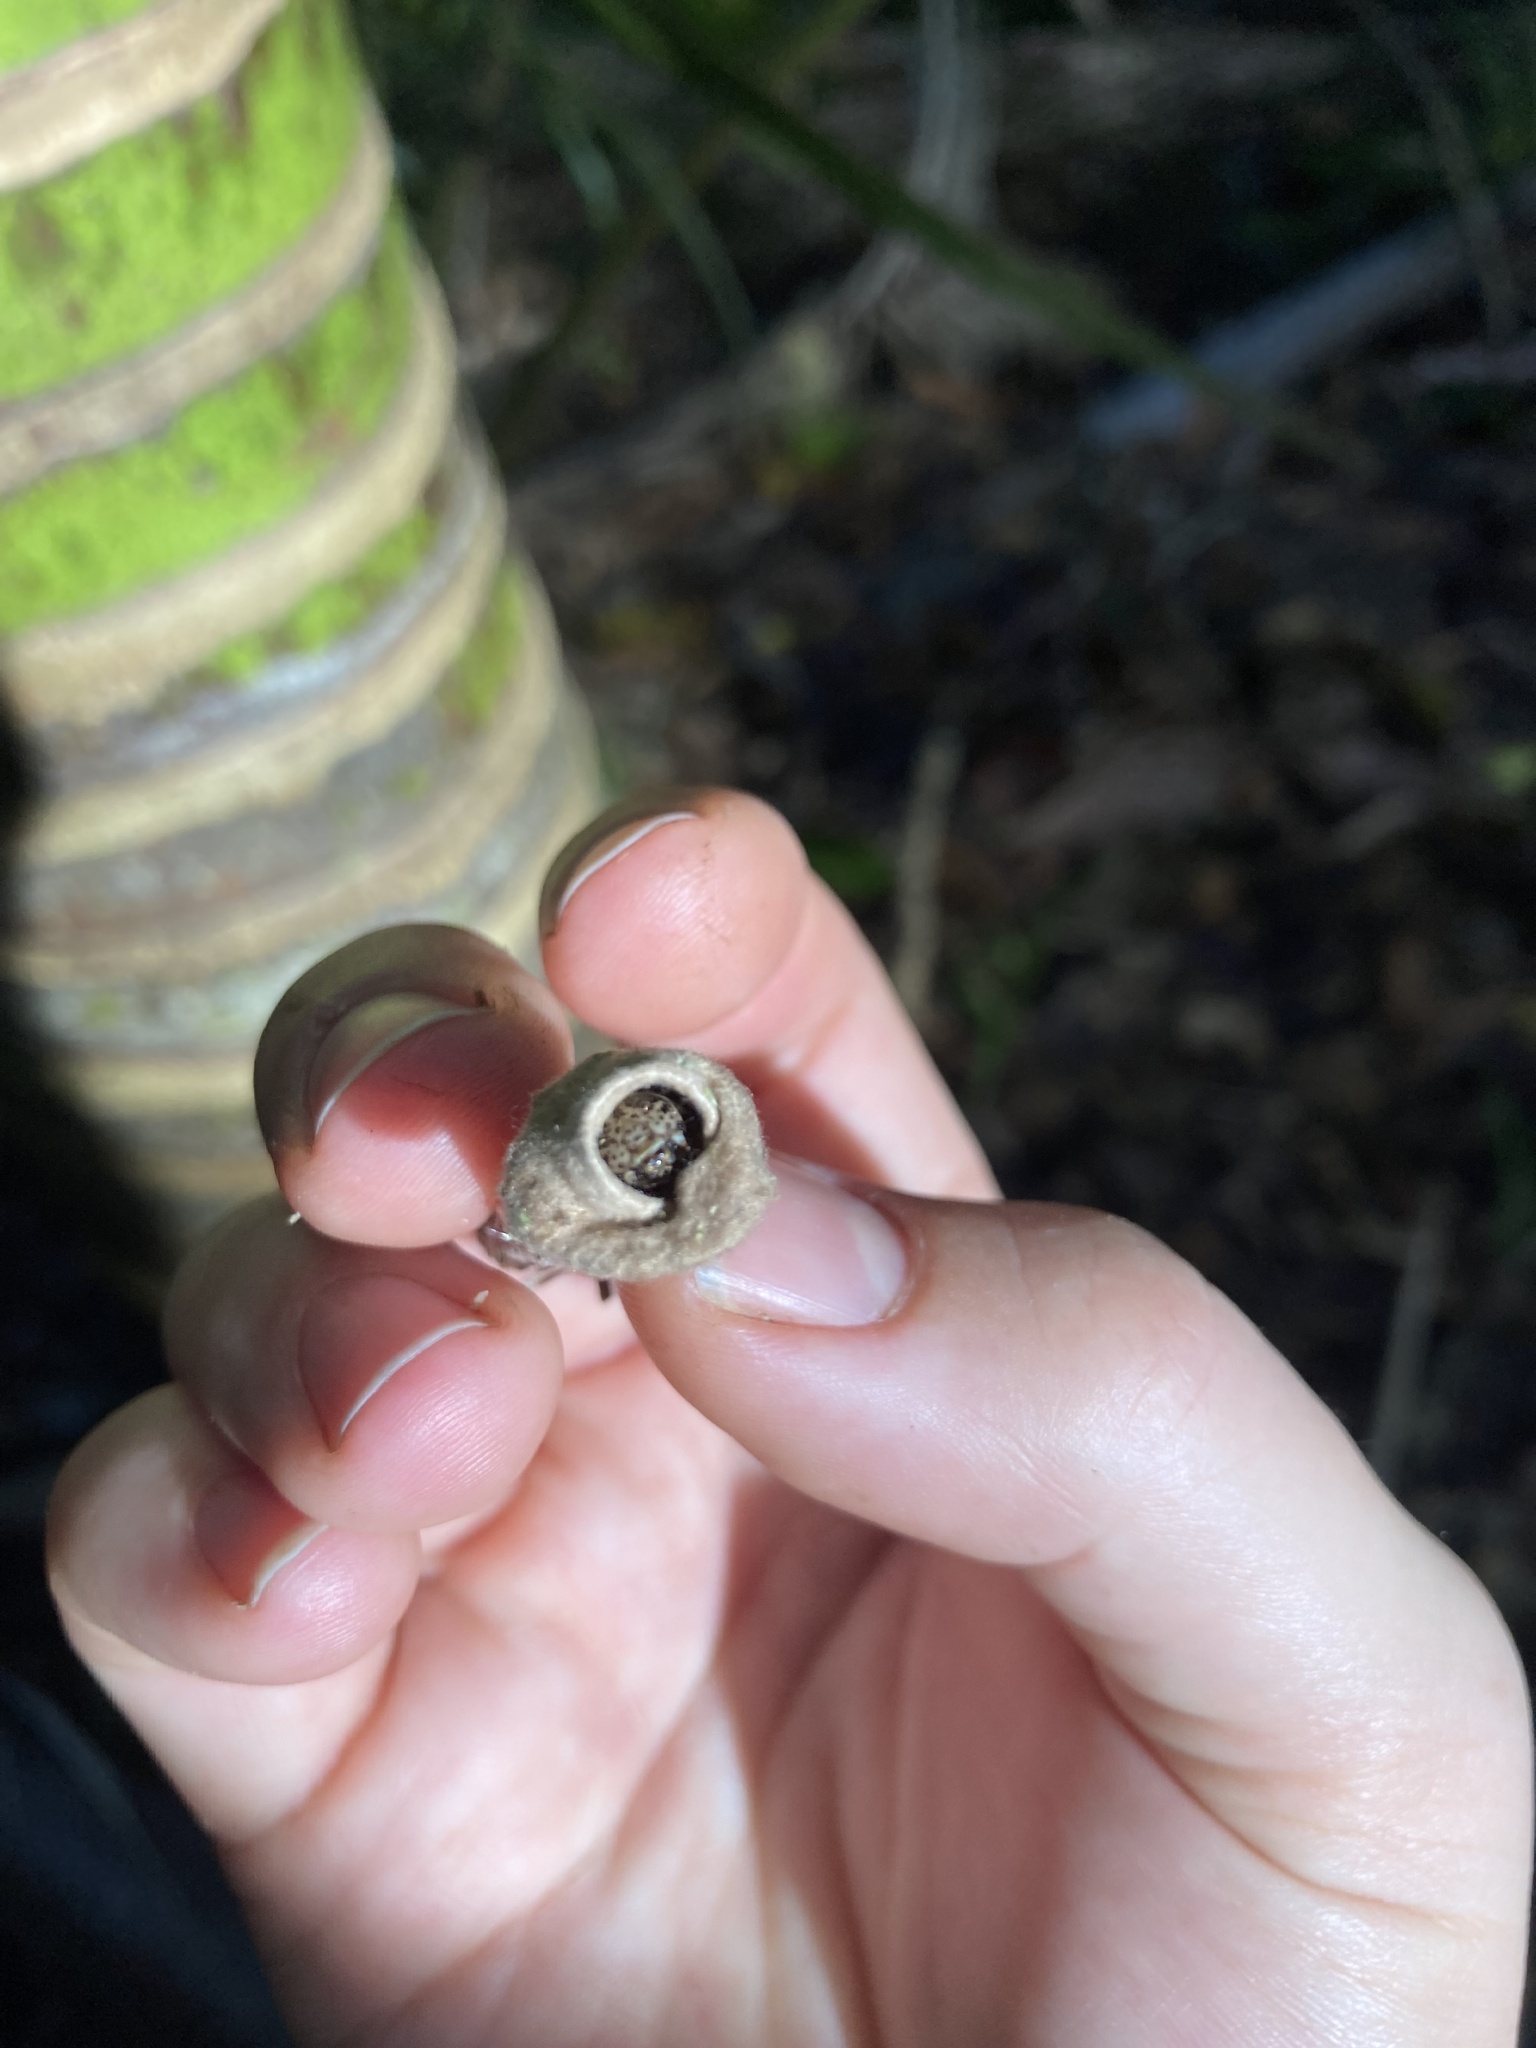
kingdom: Animalia
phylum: Arthropoda
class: Insecta
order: Lepidoptera
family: Psychidae
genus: Liothula
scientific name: Liothula omnivora
